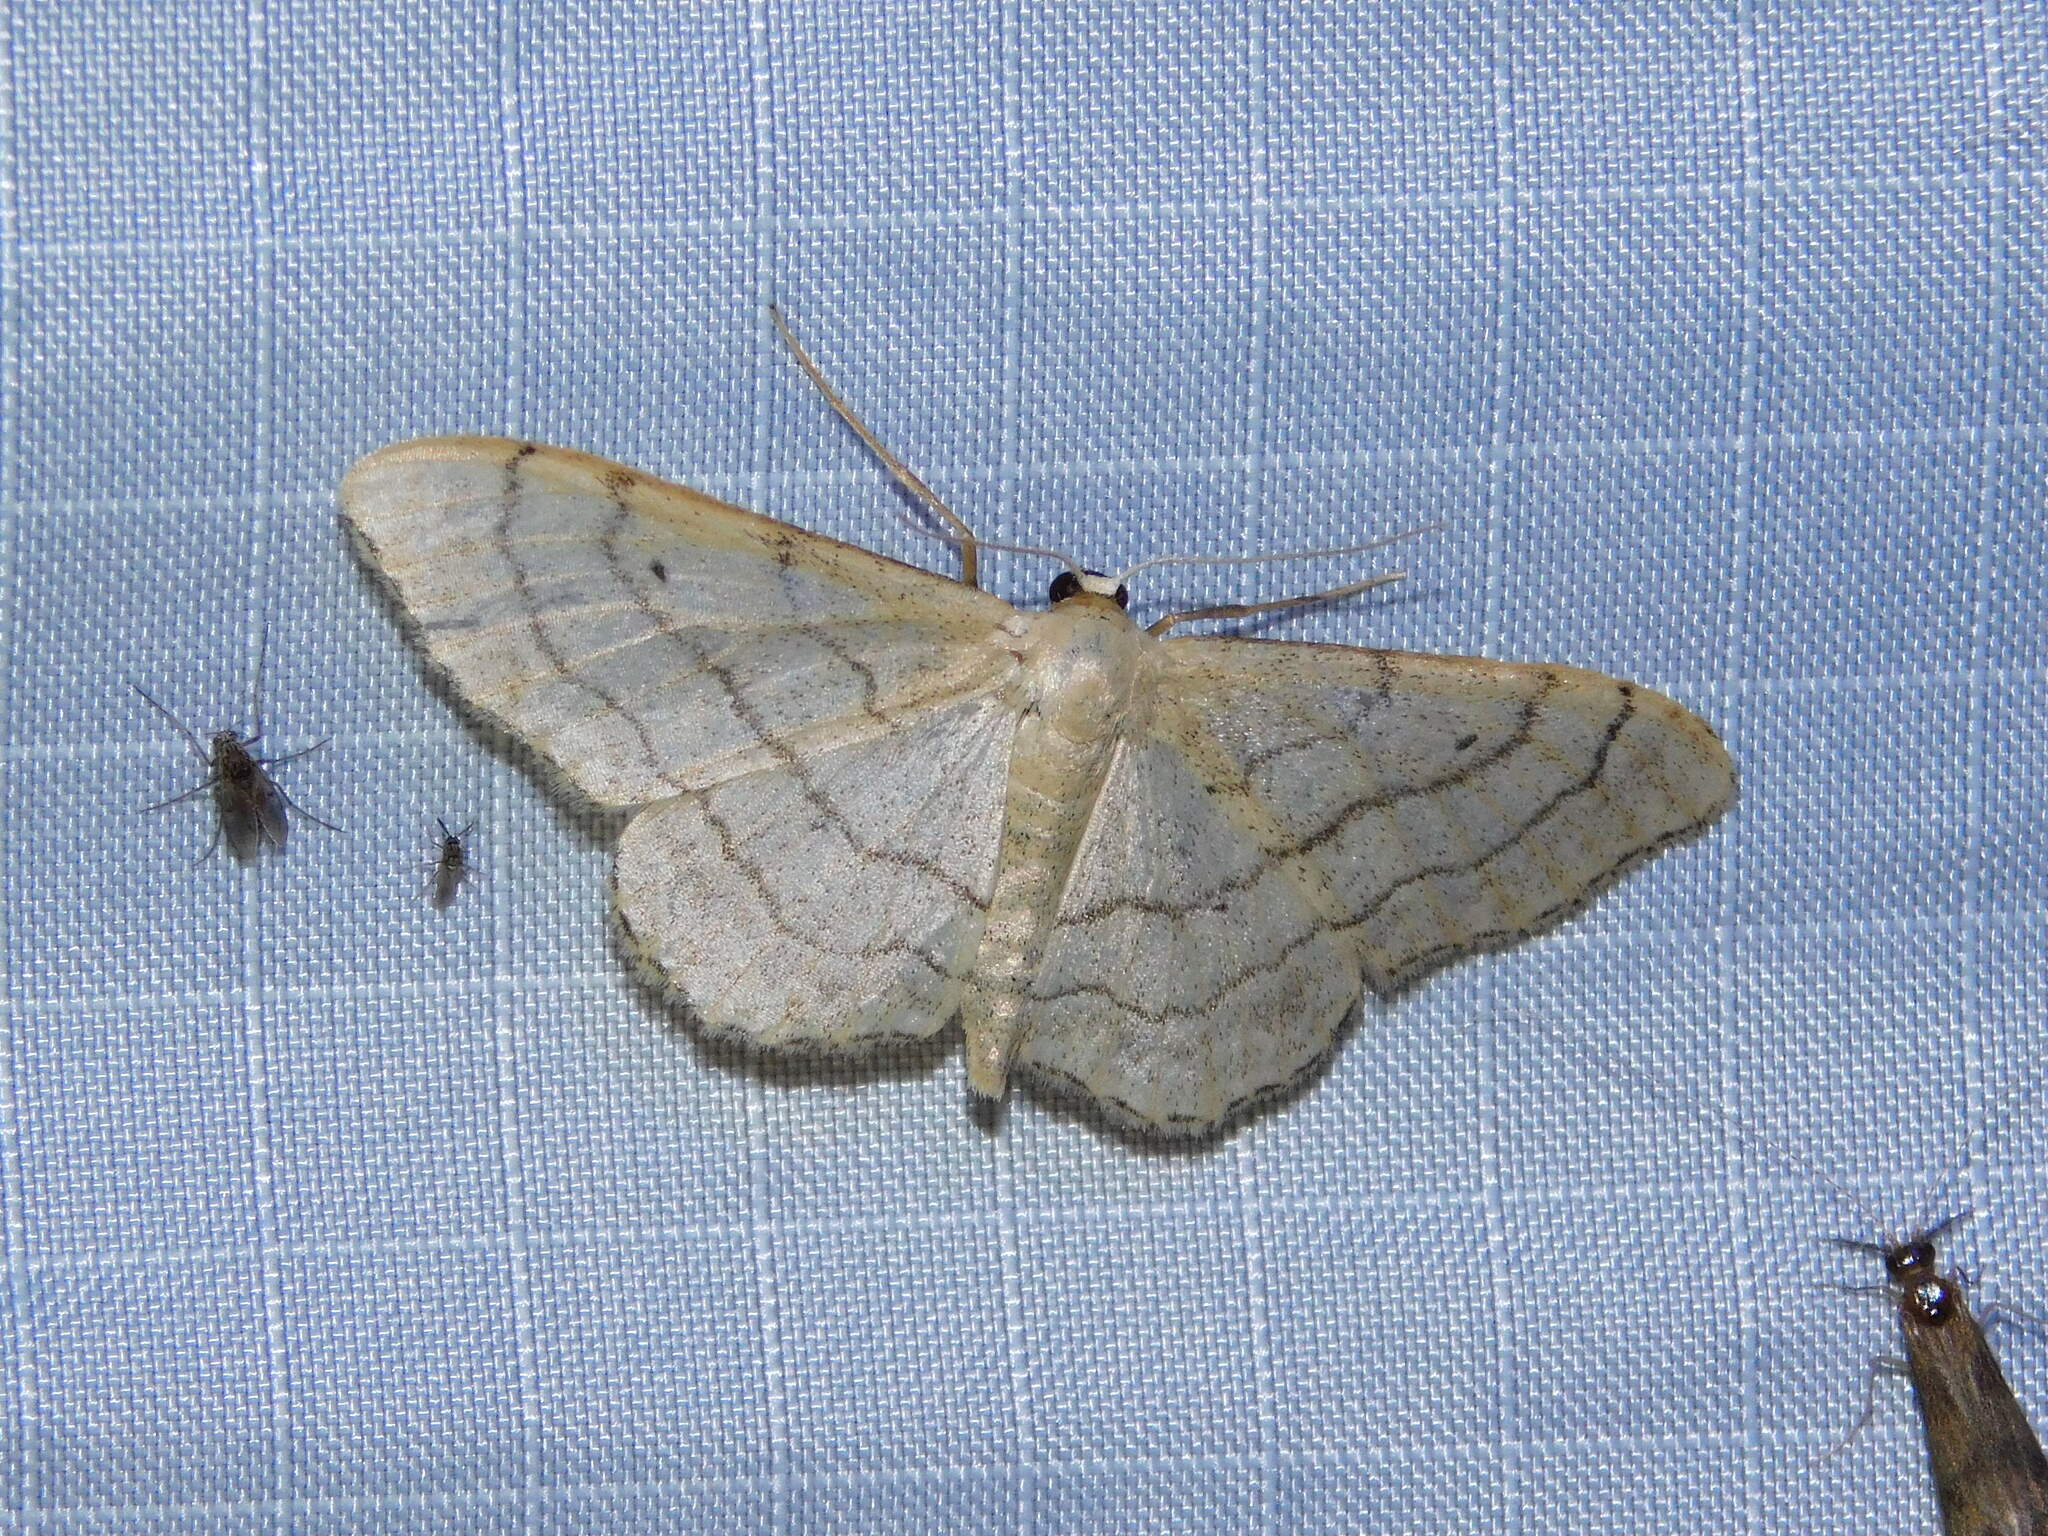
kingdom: Animalia
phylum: Arthropoda
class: Insecta
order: Lepidoptera
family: Geometridae
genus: Idaea
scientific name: Idaea aversata
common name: Riband wave
